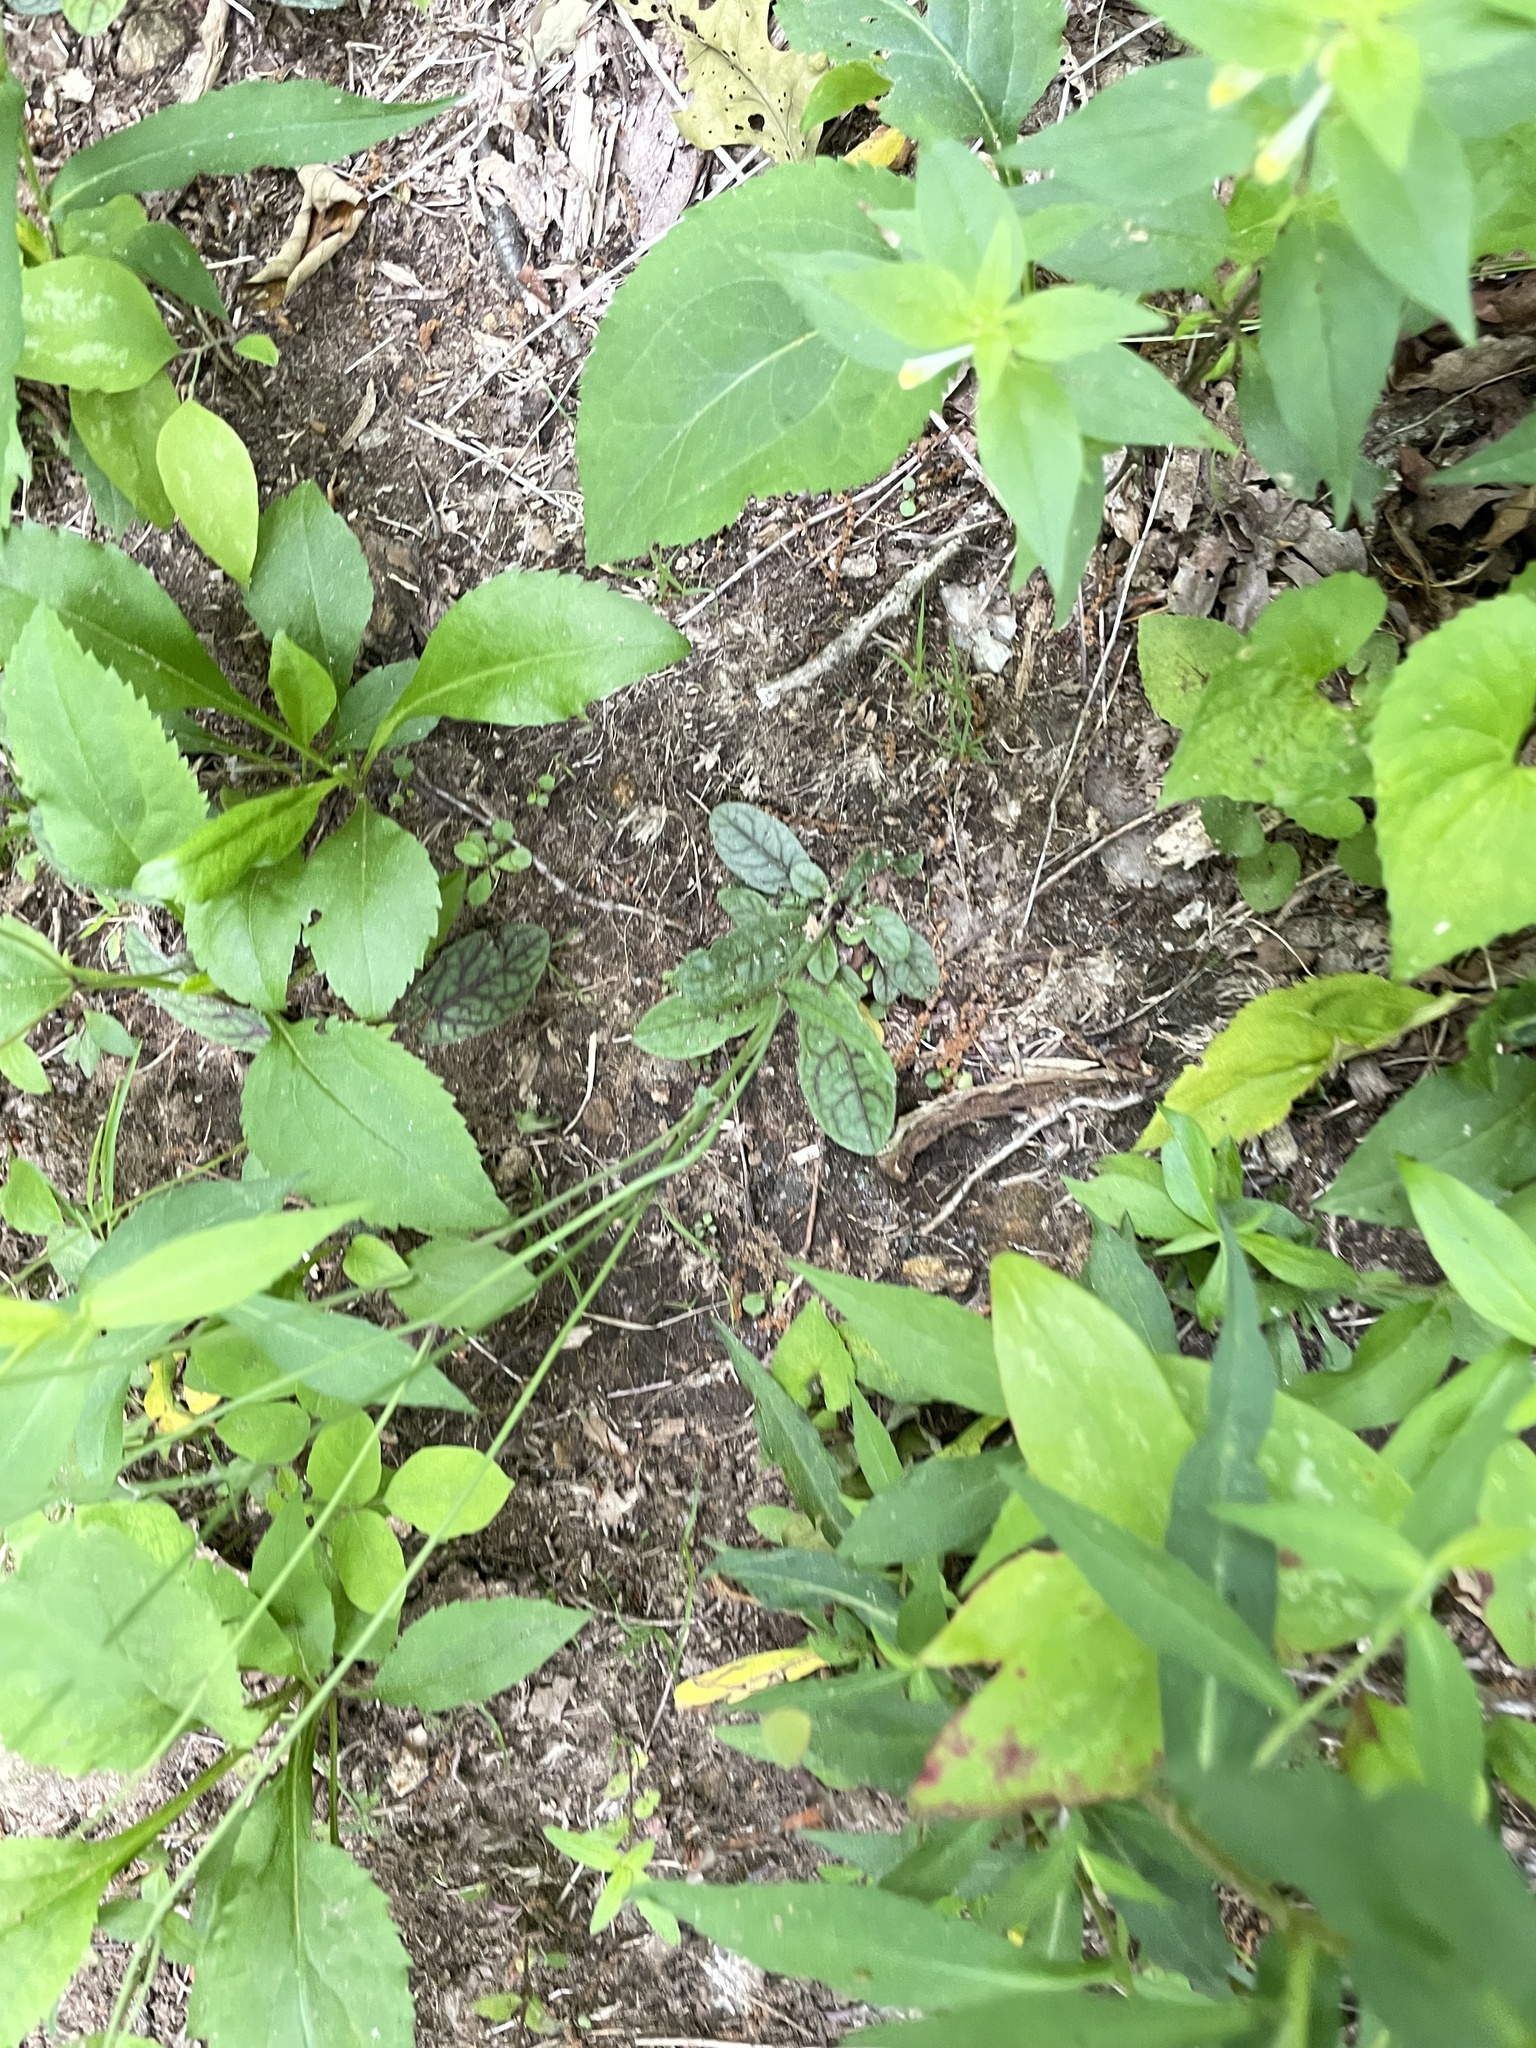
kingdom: Plantae
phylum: Tracheophyta
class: Magnoliopsida
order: Asterales
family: Asteraceae
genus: Hieracium
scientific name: Hieracium venosum
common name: Rattlesnake hawkweed
